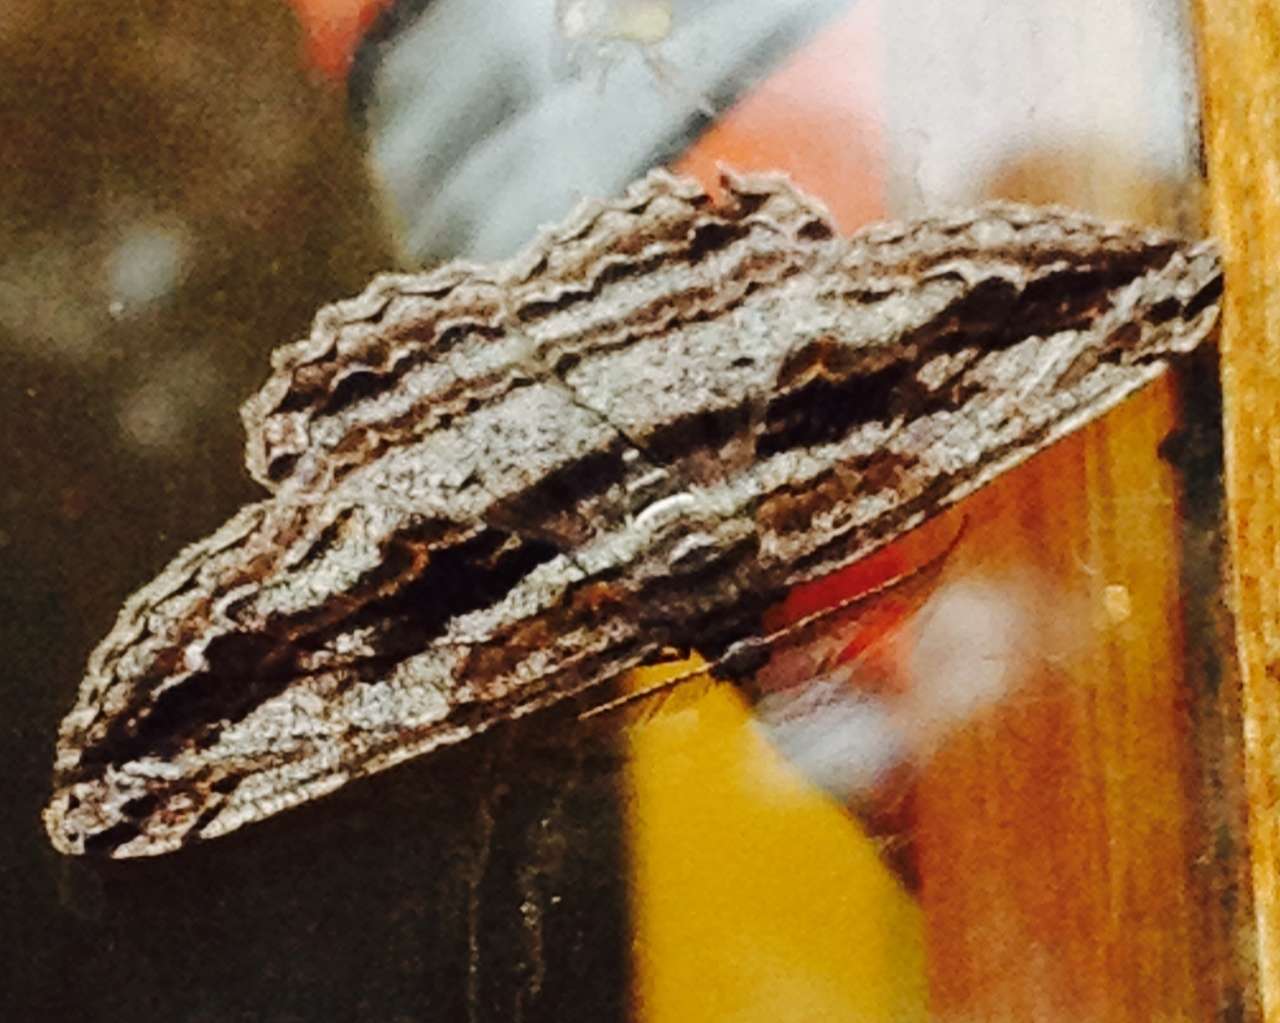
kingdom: Animalia
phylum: Arthropoda
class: Insecta
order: Lepidoptera
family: Geometridae
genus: Scioglyptis
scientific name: Scioglyptis chionomera
